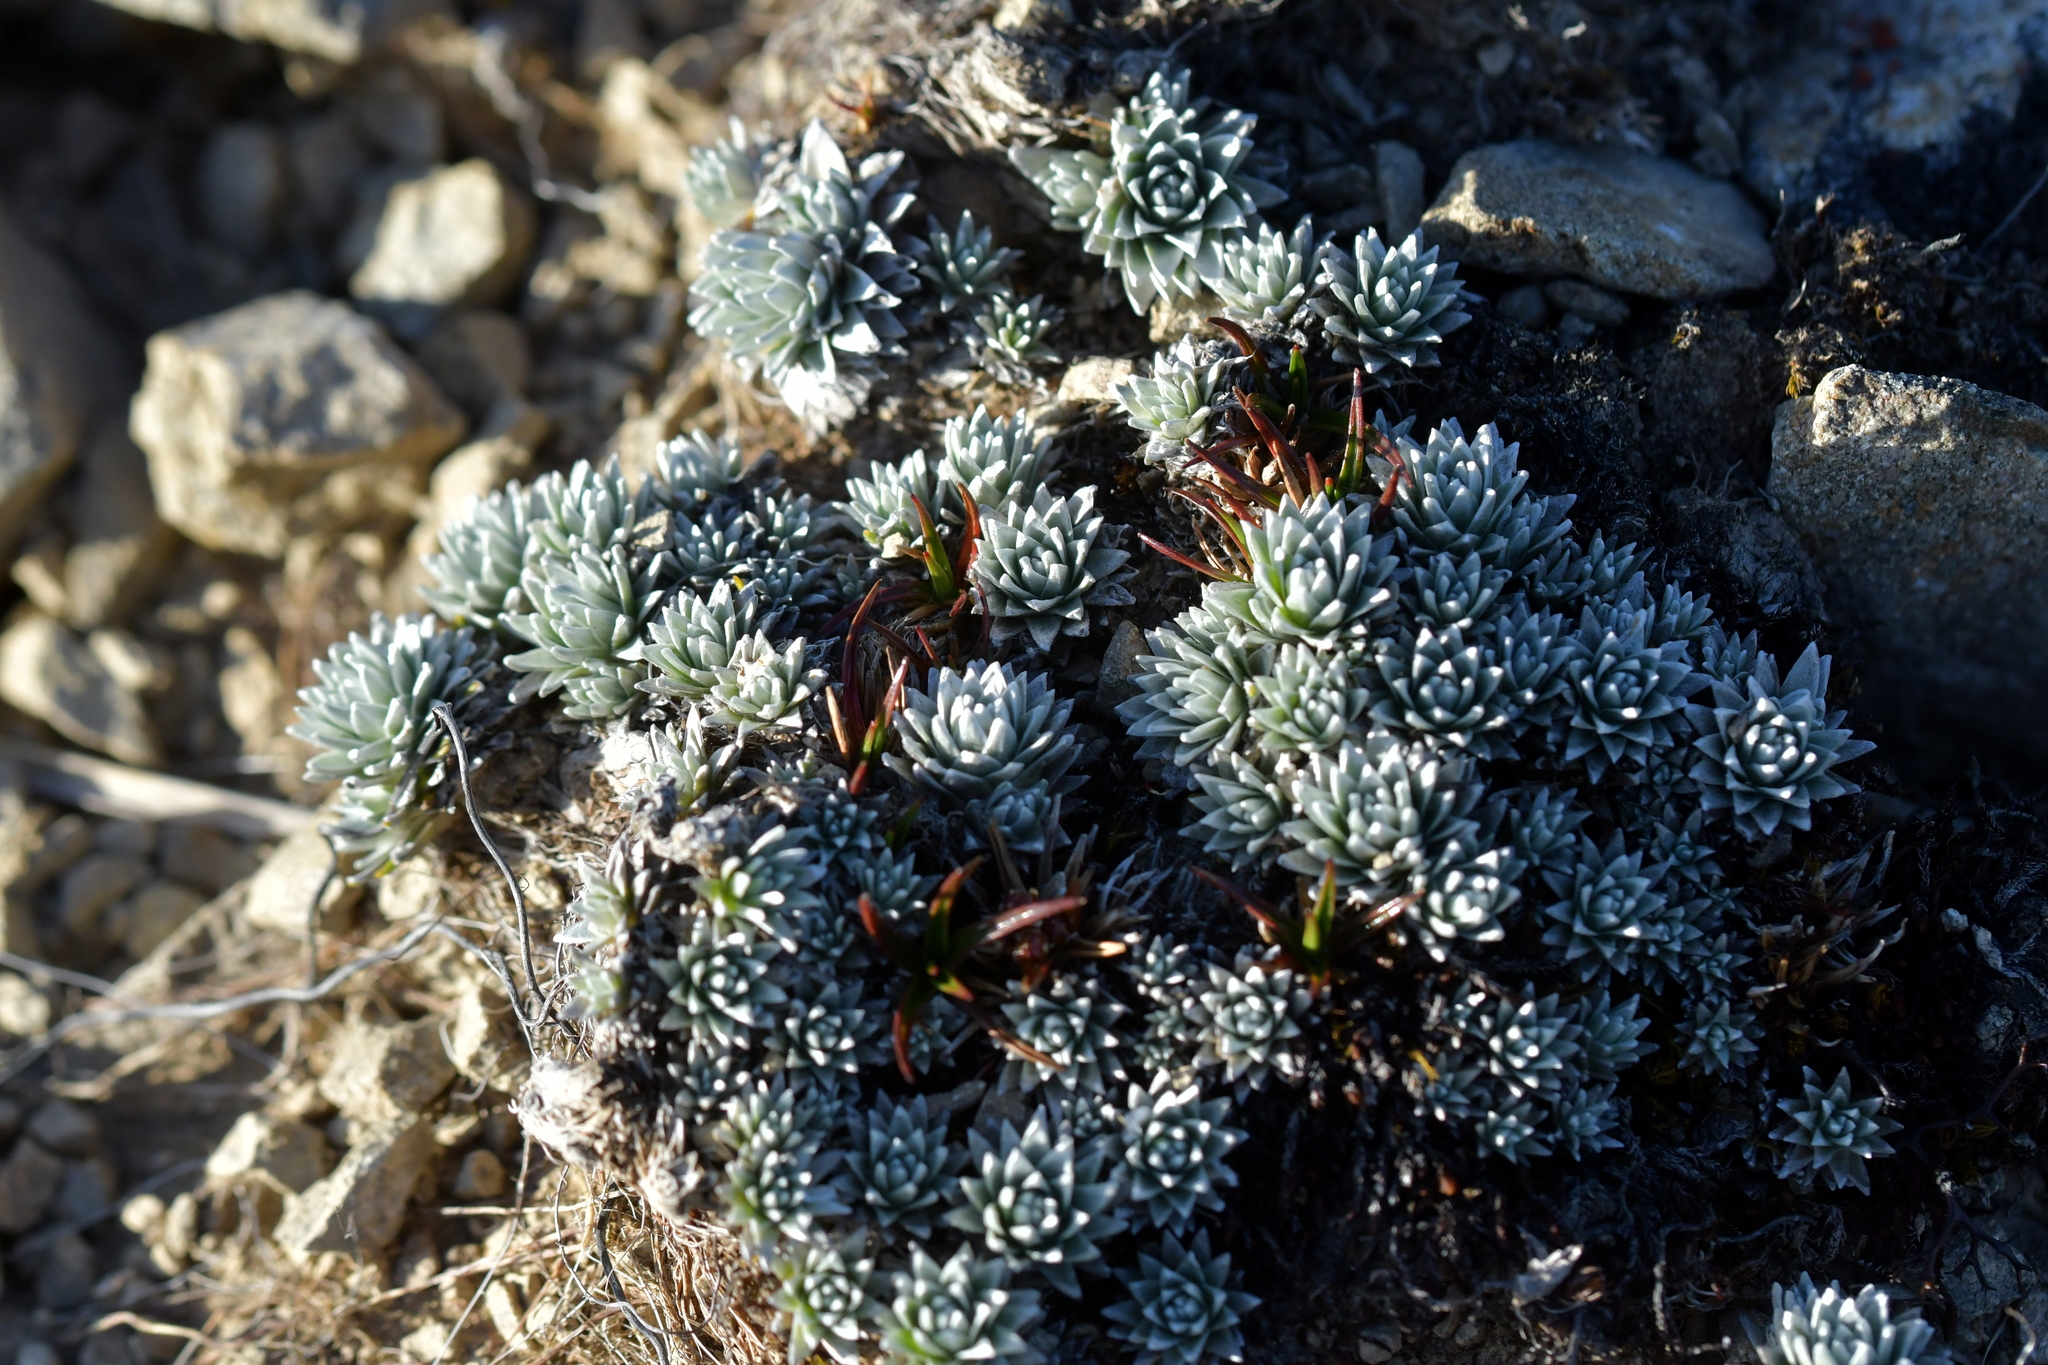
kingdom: Plantae
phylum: Tracheophyta
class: Magnoliopsida
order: Asterales
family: Asteraceae
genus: Raoulia
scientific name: Raoulia grandiflora
